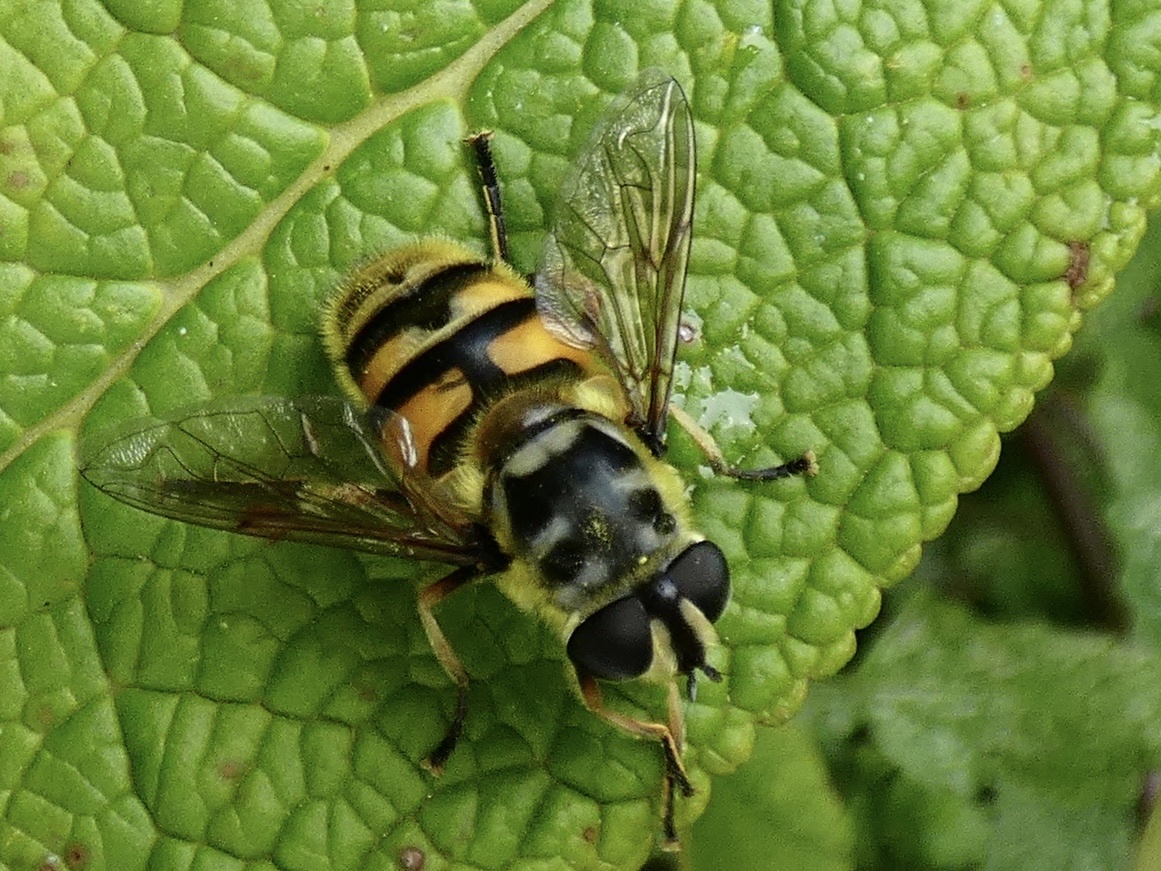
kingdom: Animalia
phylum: Arthropoda
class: Insecta
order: Diptera
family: Syrphidae
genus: Myathropa
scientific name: Myathropa florea
